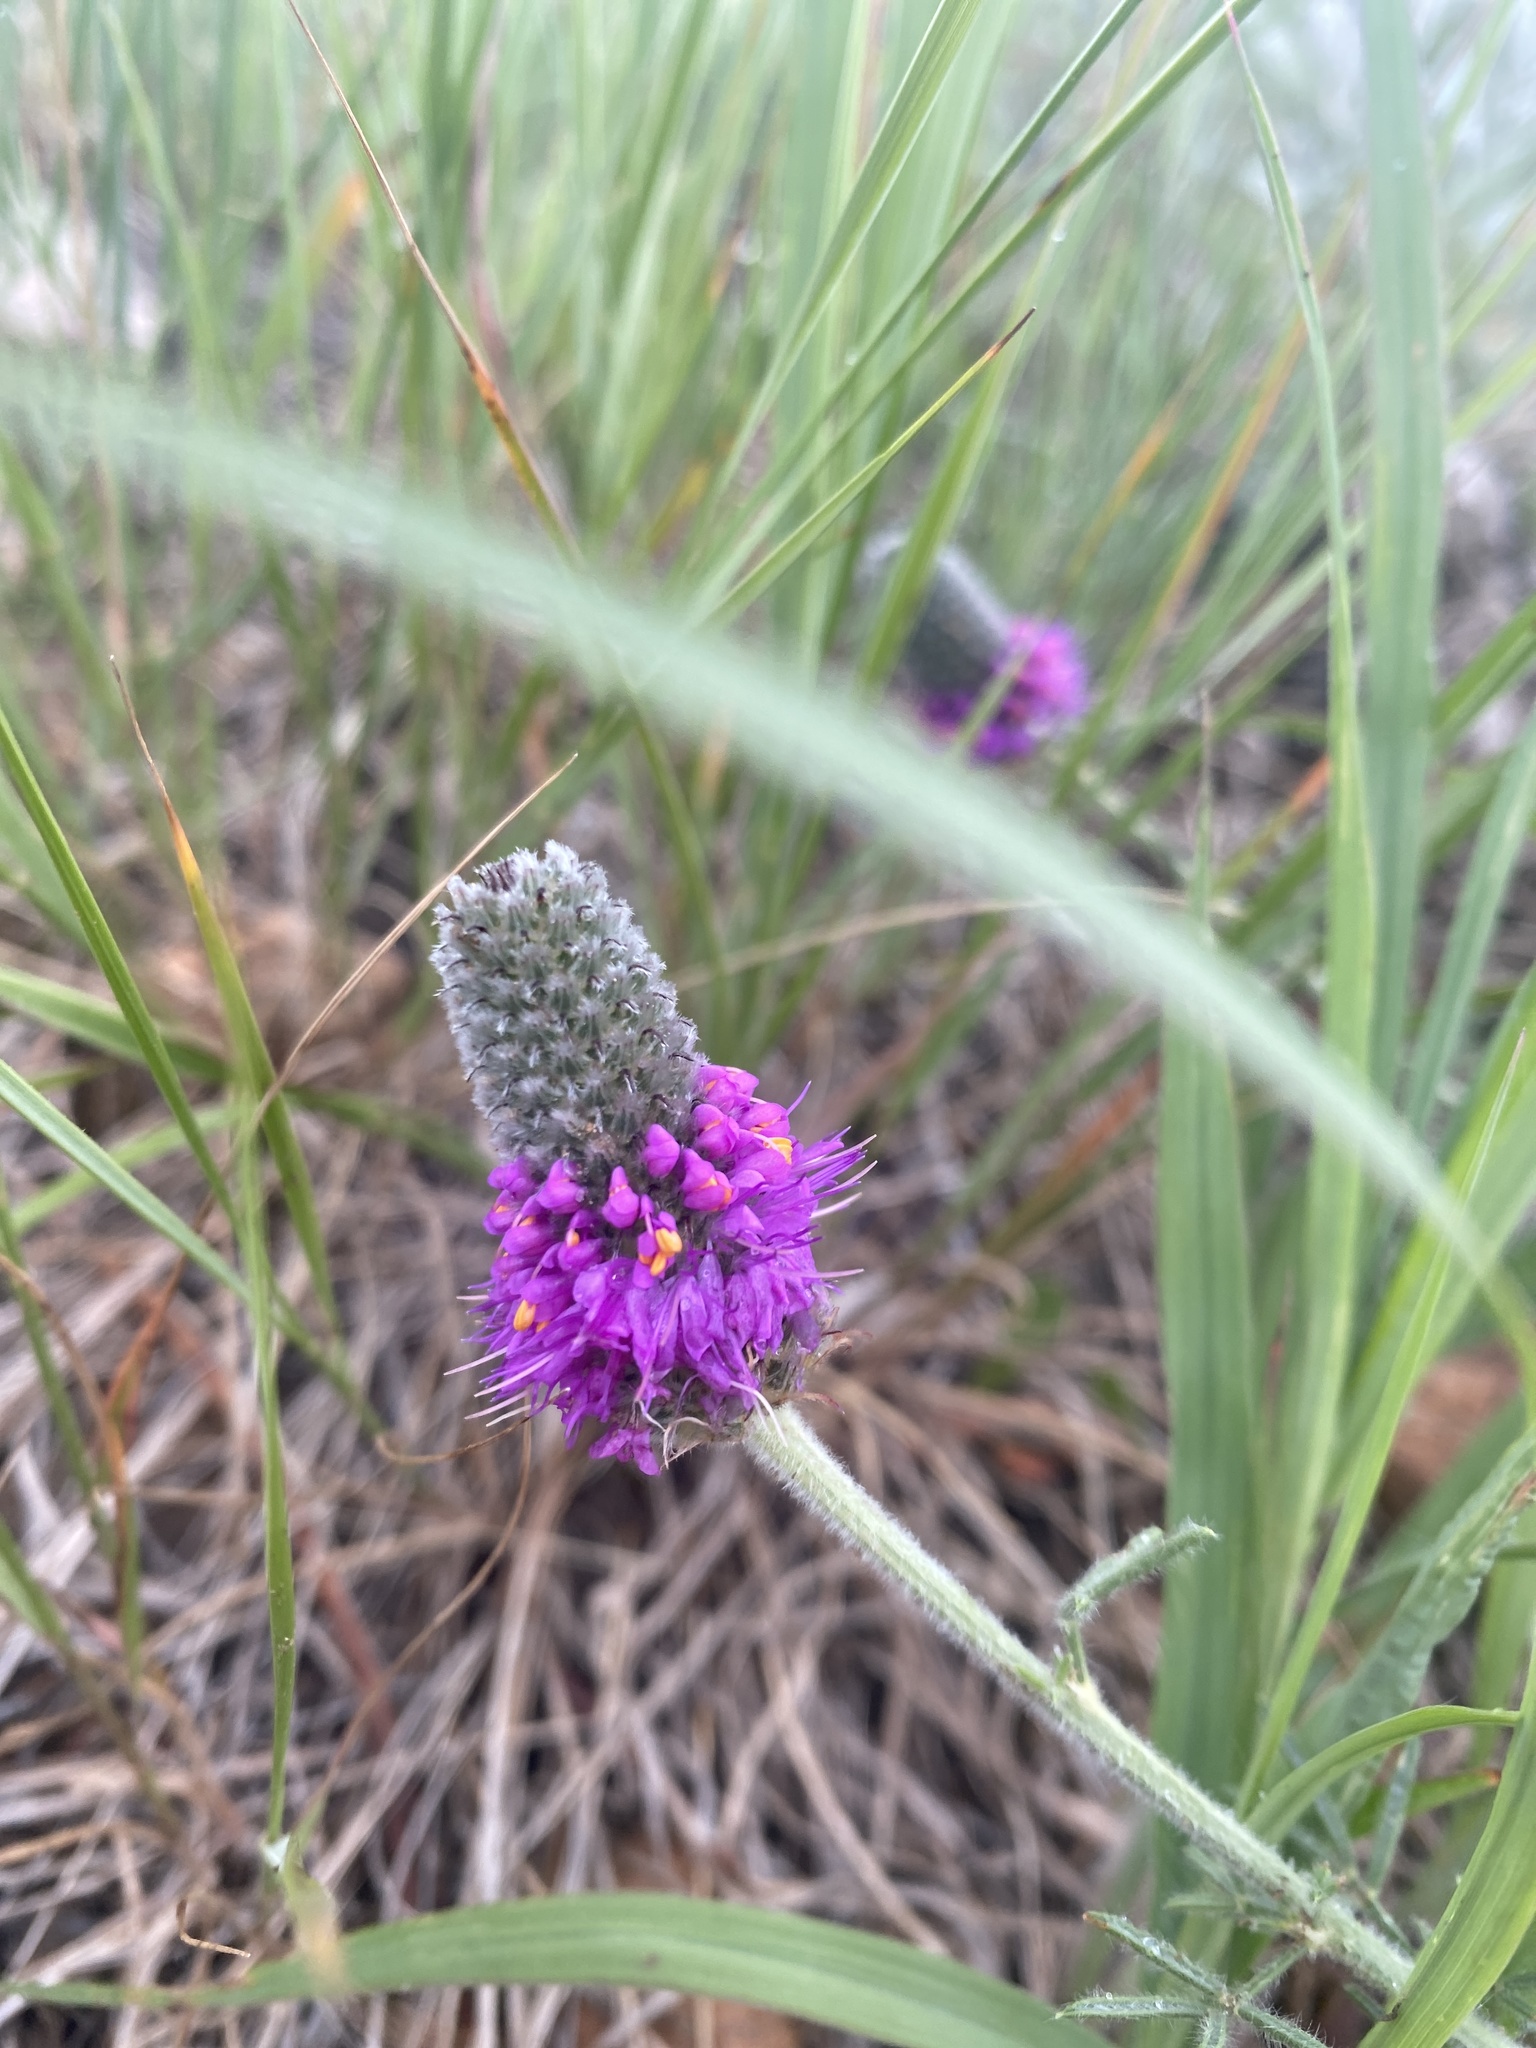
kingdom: Plantae
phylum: Tracheophyta
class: Magnoliopsida
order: Fabales
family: Fabaceae
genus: Dalea
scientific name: Dalea purpurea
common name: Purple prairie-clover
